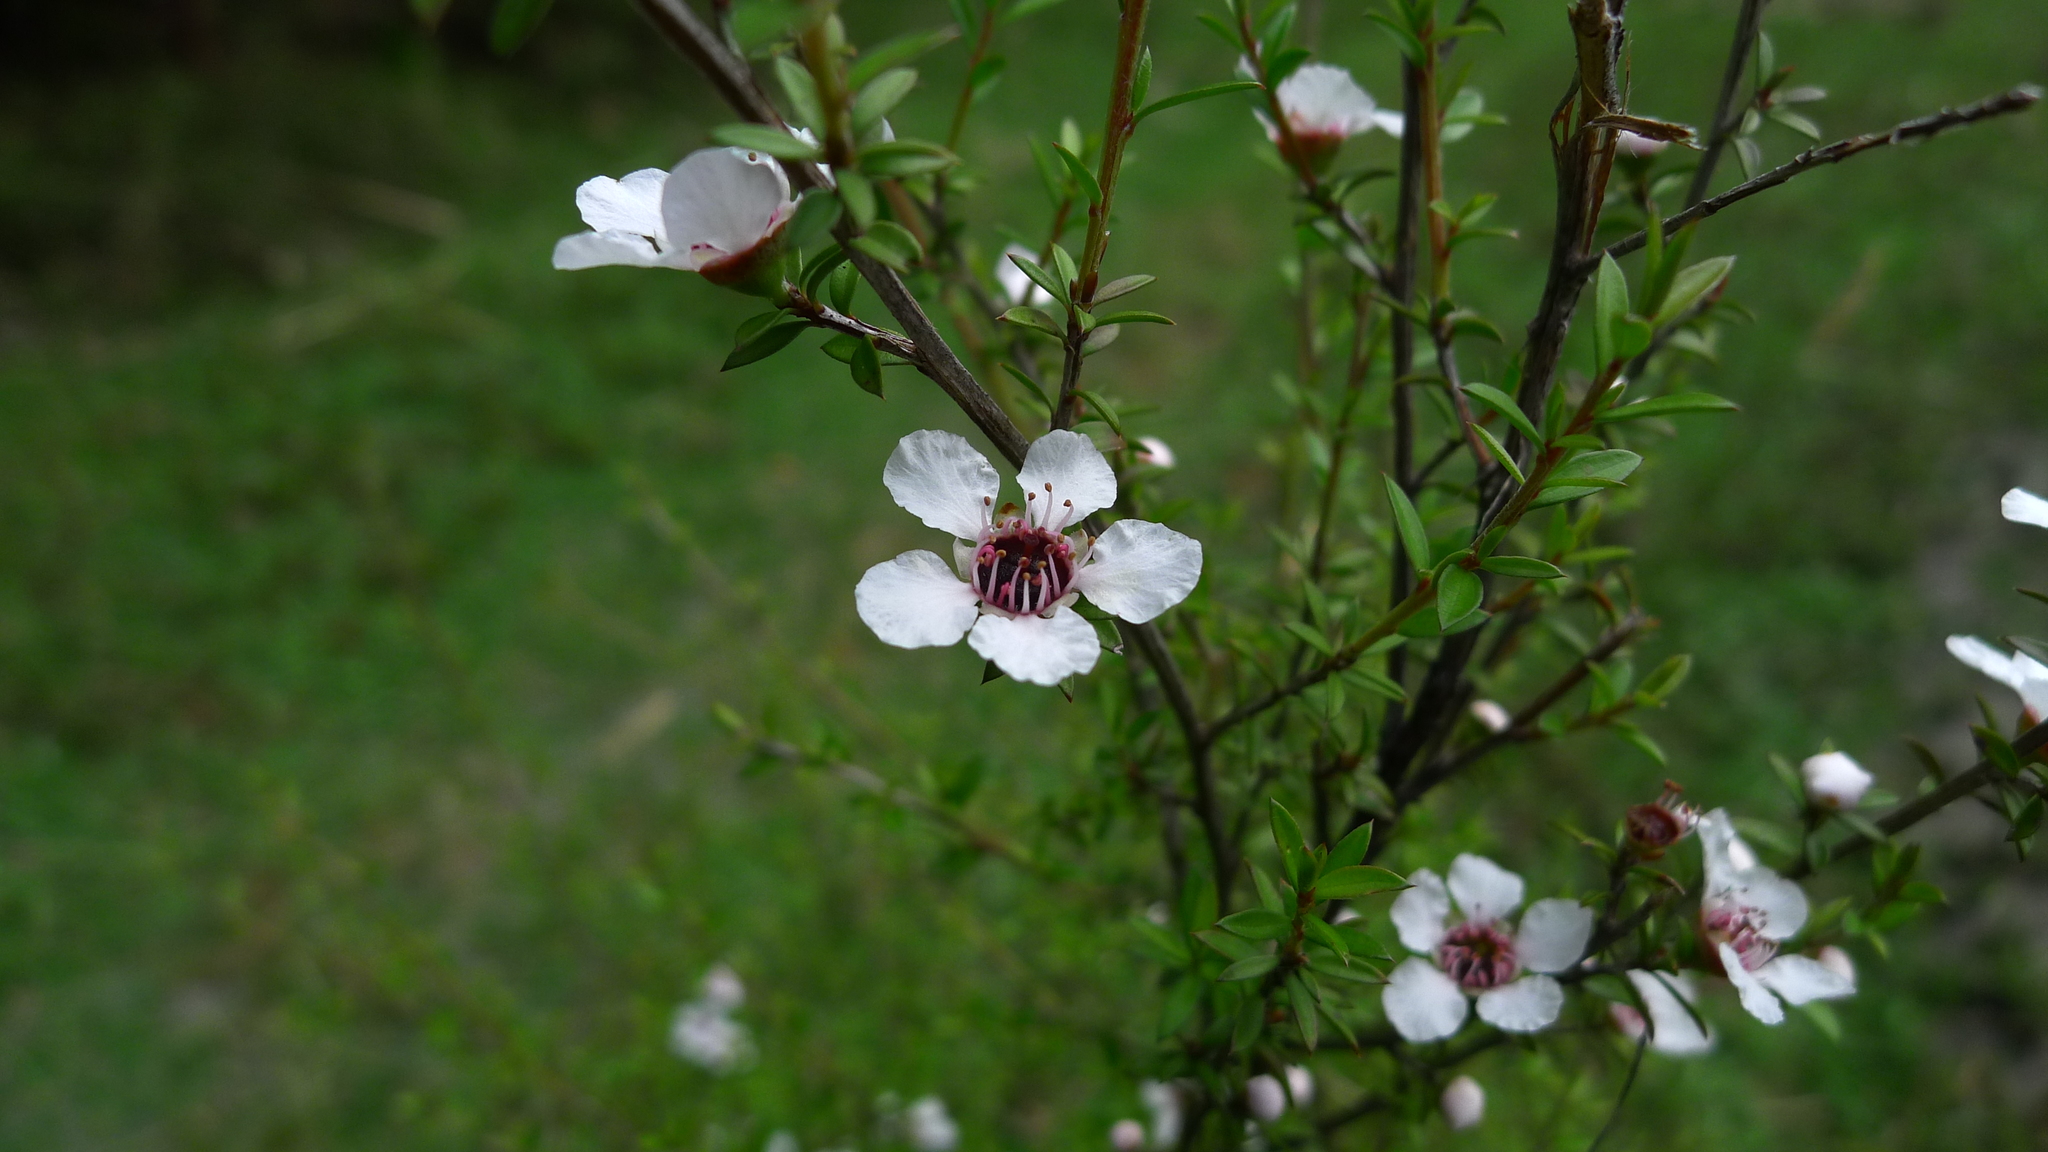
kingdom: Plantae
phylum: Tracheophyta
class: Magnoliopsida
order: Myrtales
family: Myrtaceae
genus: Leptospermum
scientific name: Leptospermum scoparium
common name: Broom tea-tree
